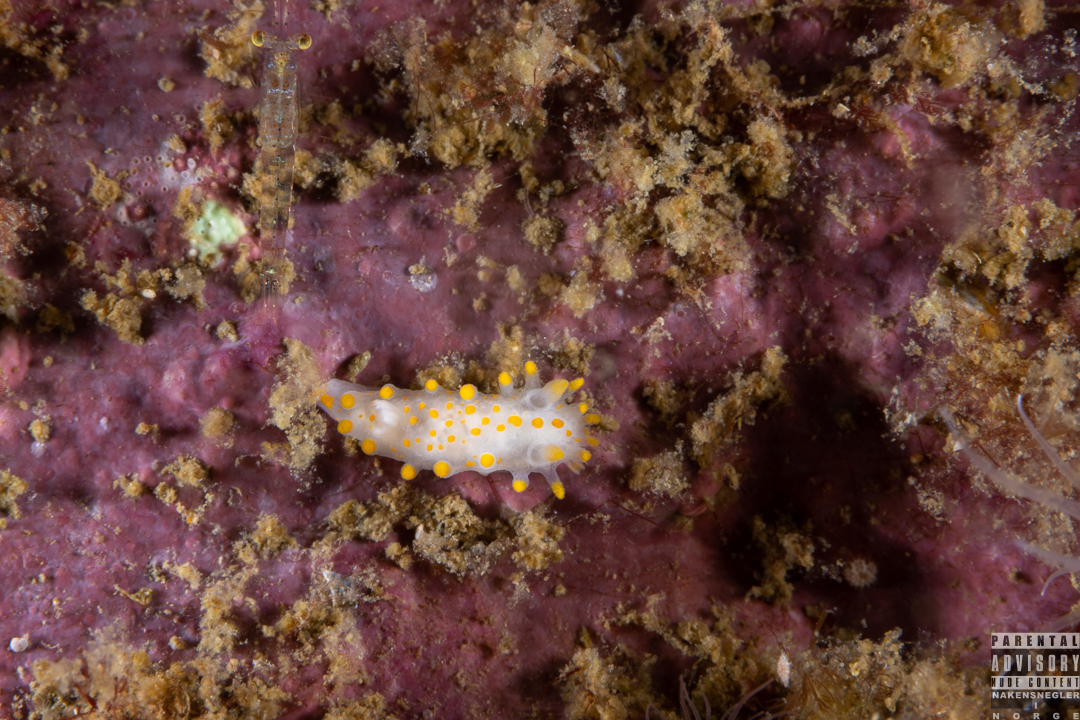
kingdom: Animalia
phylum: Mollusca
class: Gastropoda
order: Nudibranchia
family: Polyceridae
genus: Limacia
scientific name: Limacia clavigera
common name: Orange-clubbed sea slug
